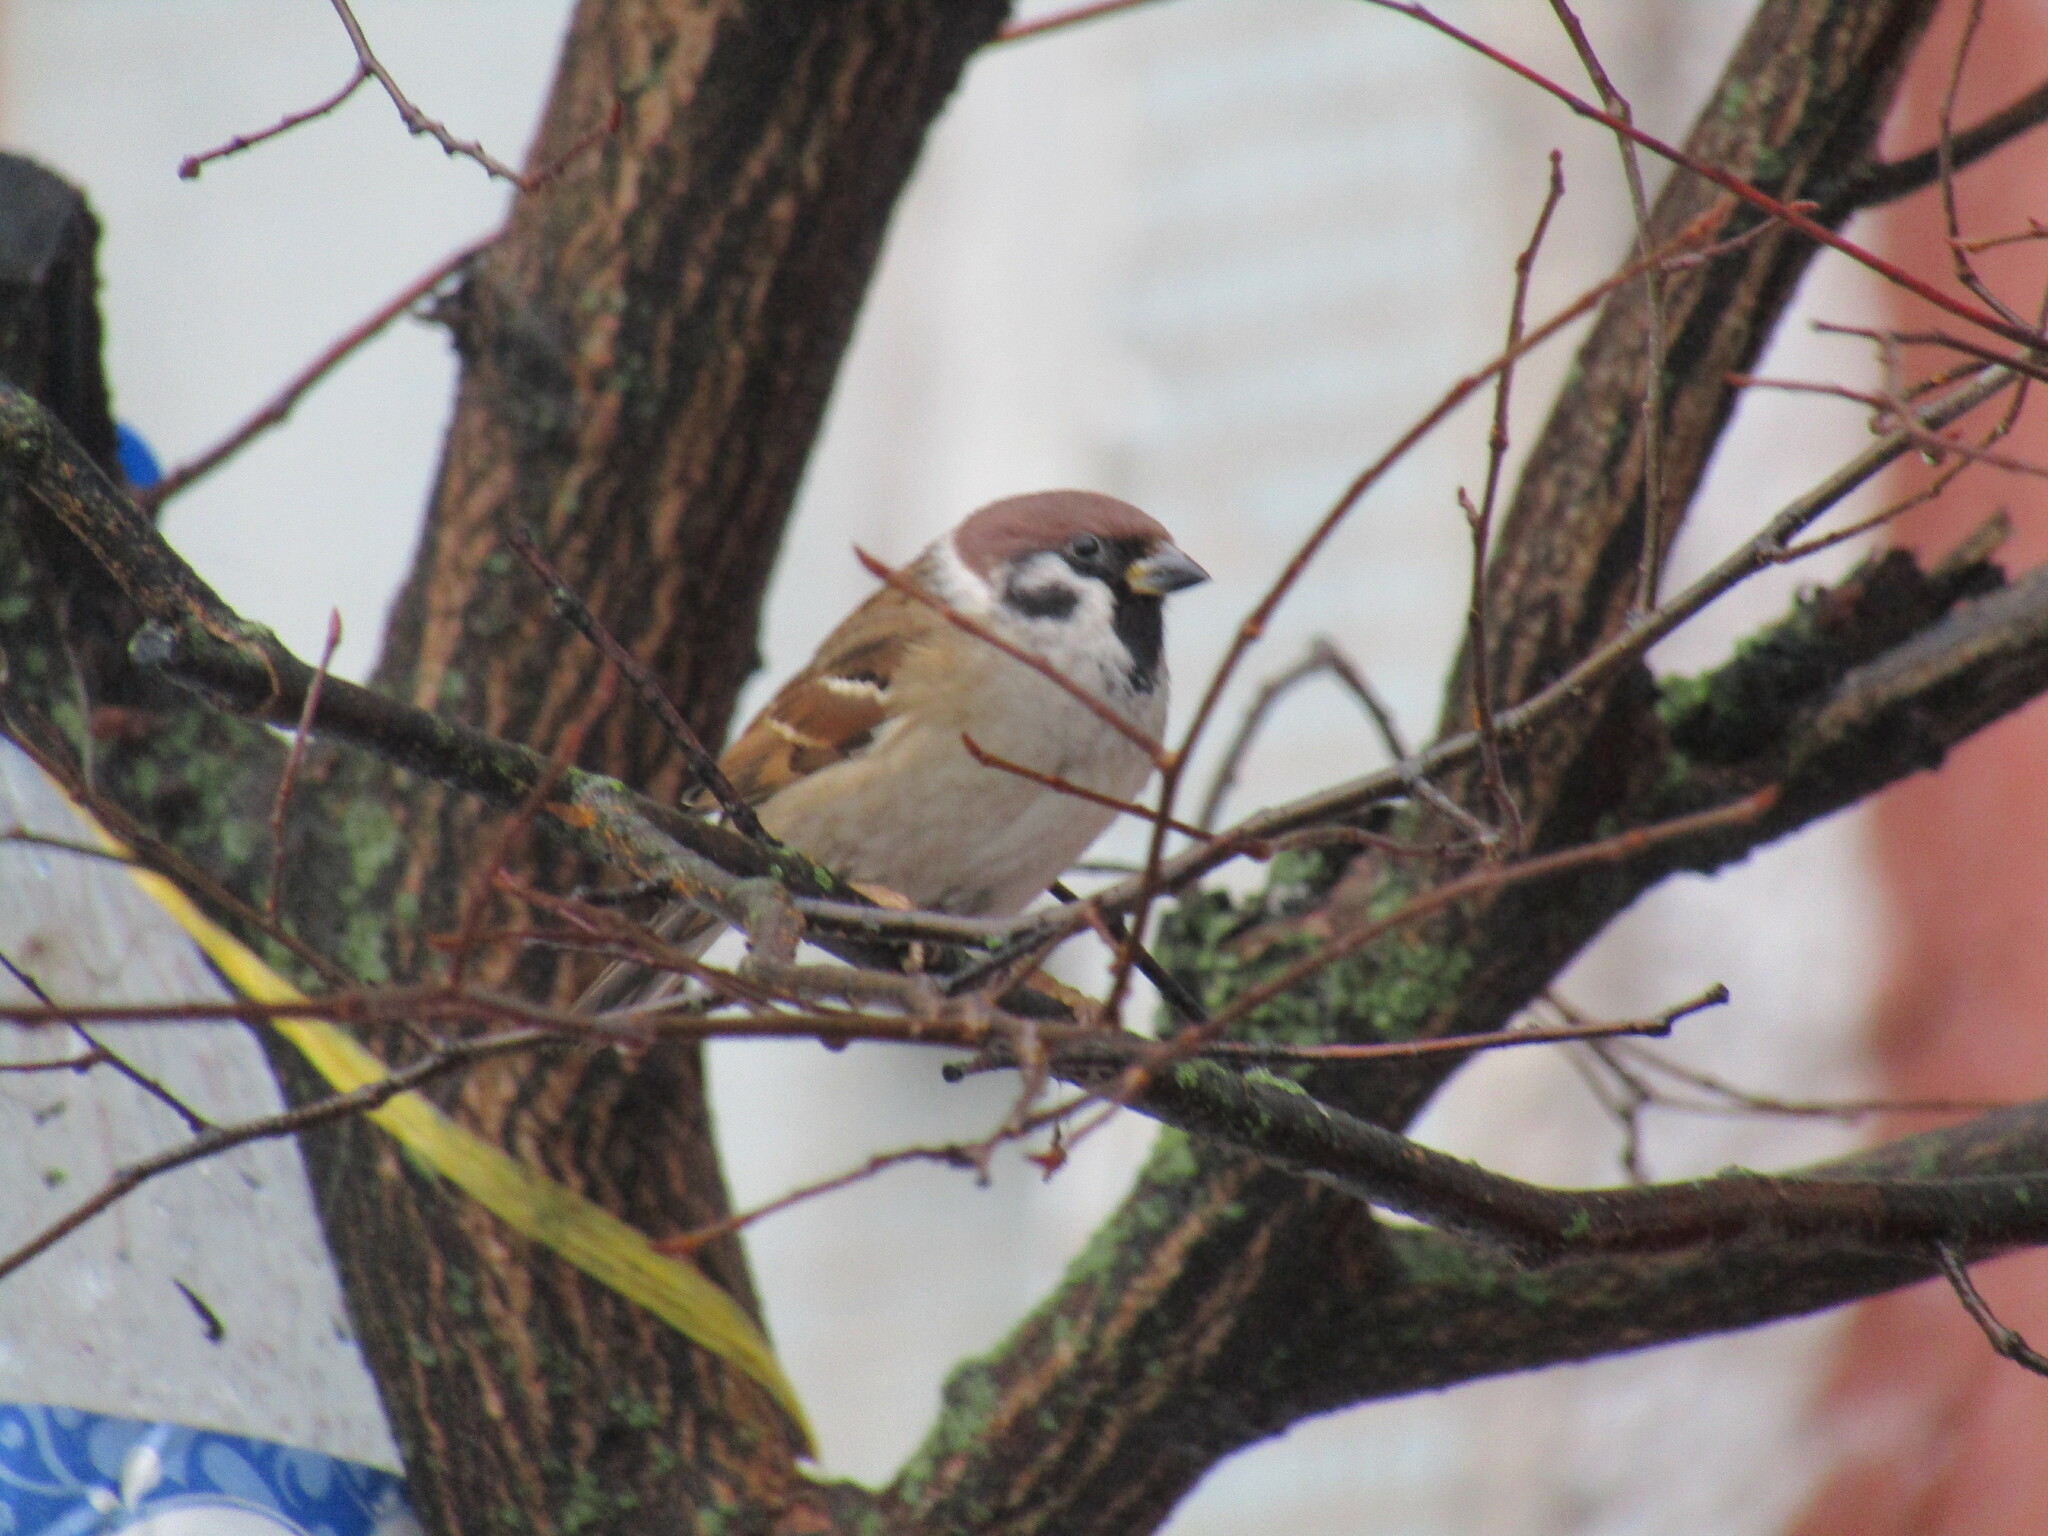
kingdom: Animalia
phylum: Chordata
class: Aves
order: Passeriformes
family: Passeridae
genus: Passer
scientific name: Passer montanus
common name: Eurasian tree sparrow
